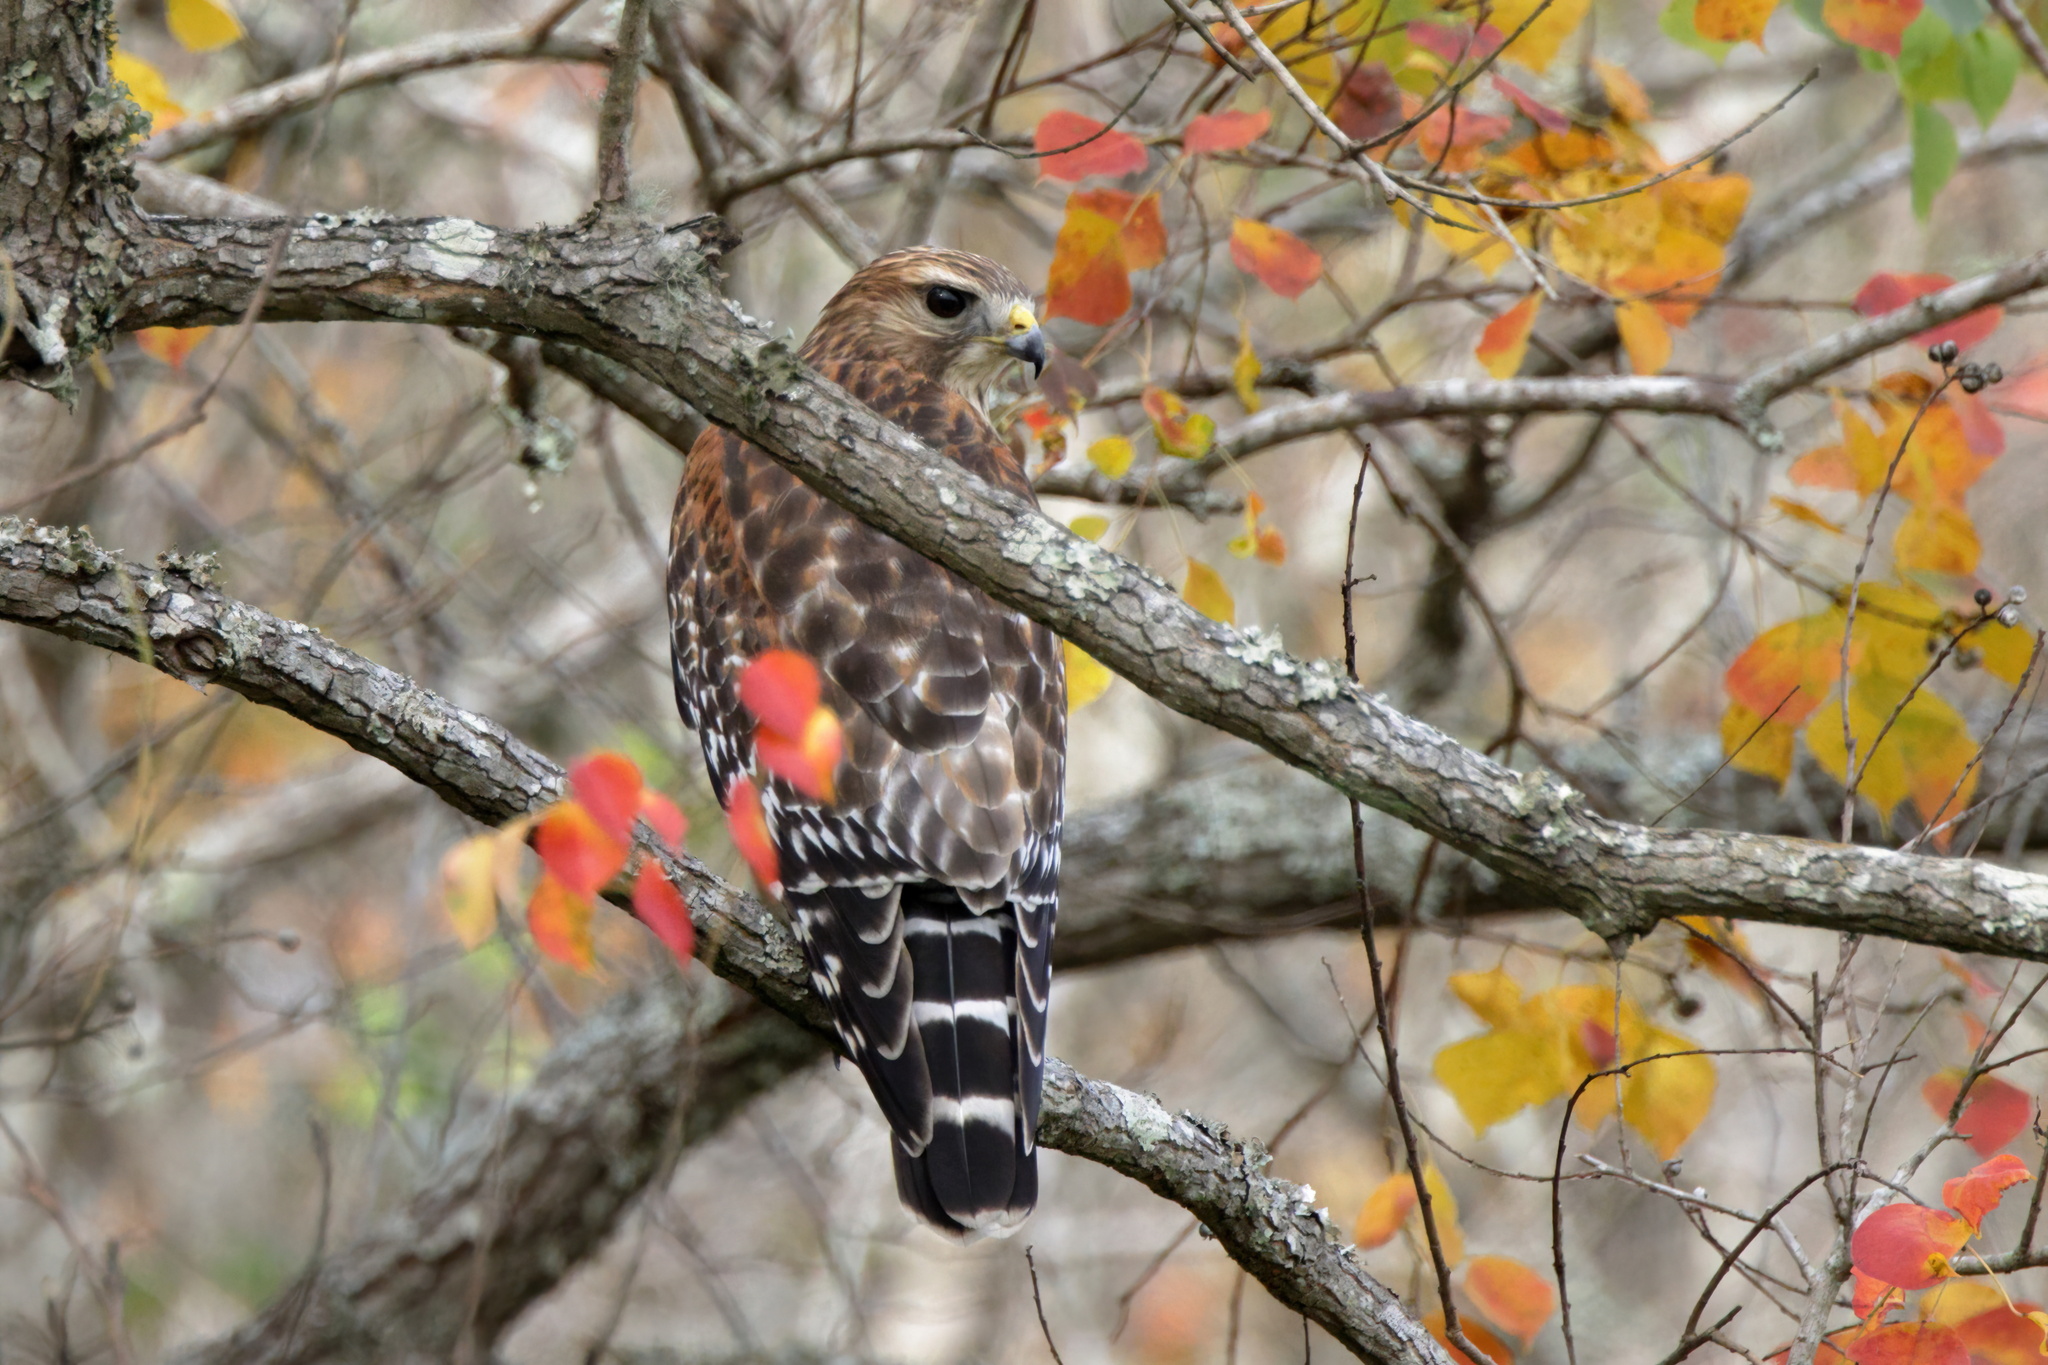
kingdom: Animalia
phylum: Chordata
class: Aves
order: Accipitriformes
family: Accipitridae
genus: Buteo
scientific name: Buteo lineatus
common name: Red-shouldered hawk
